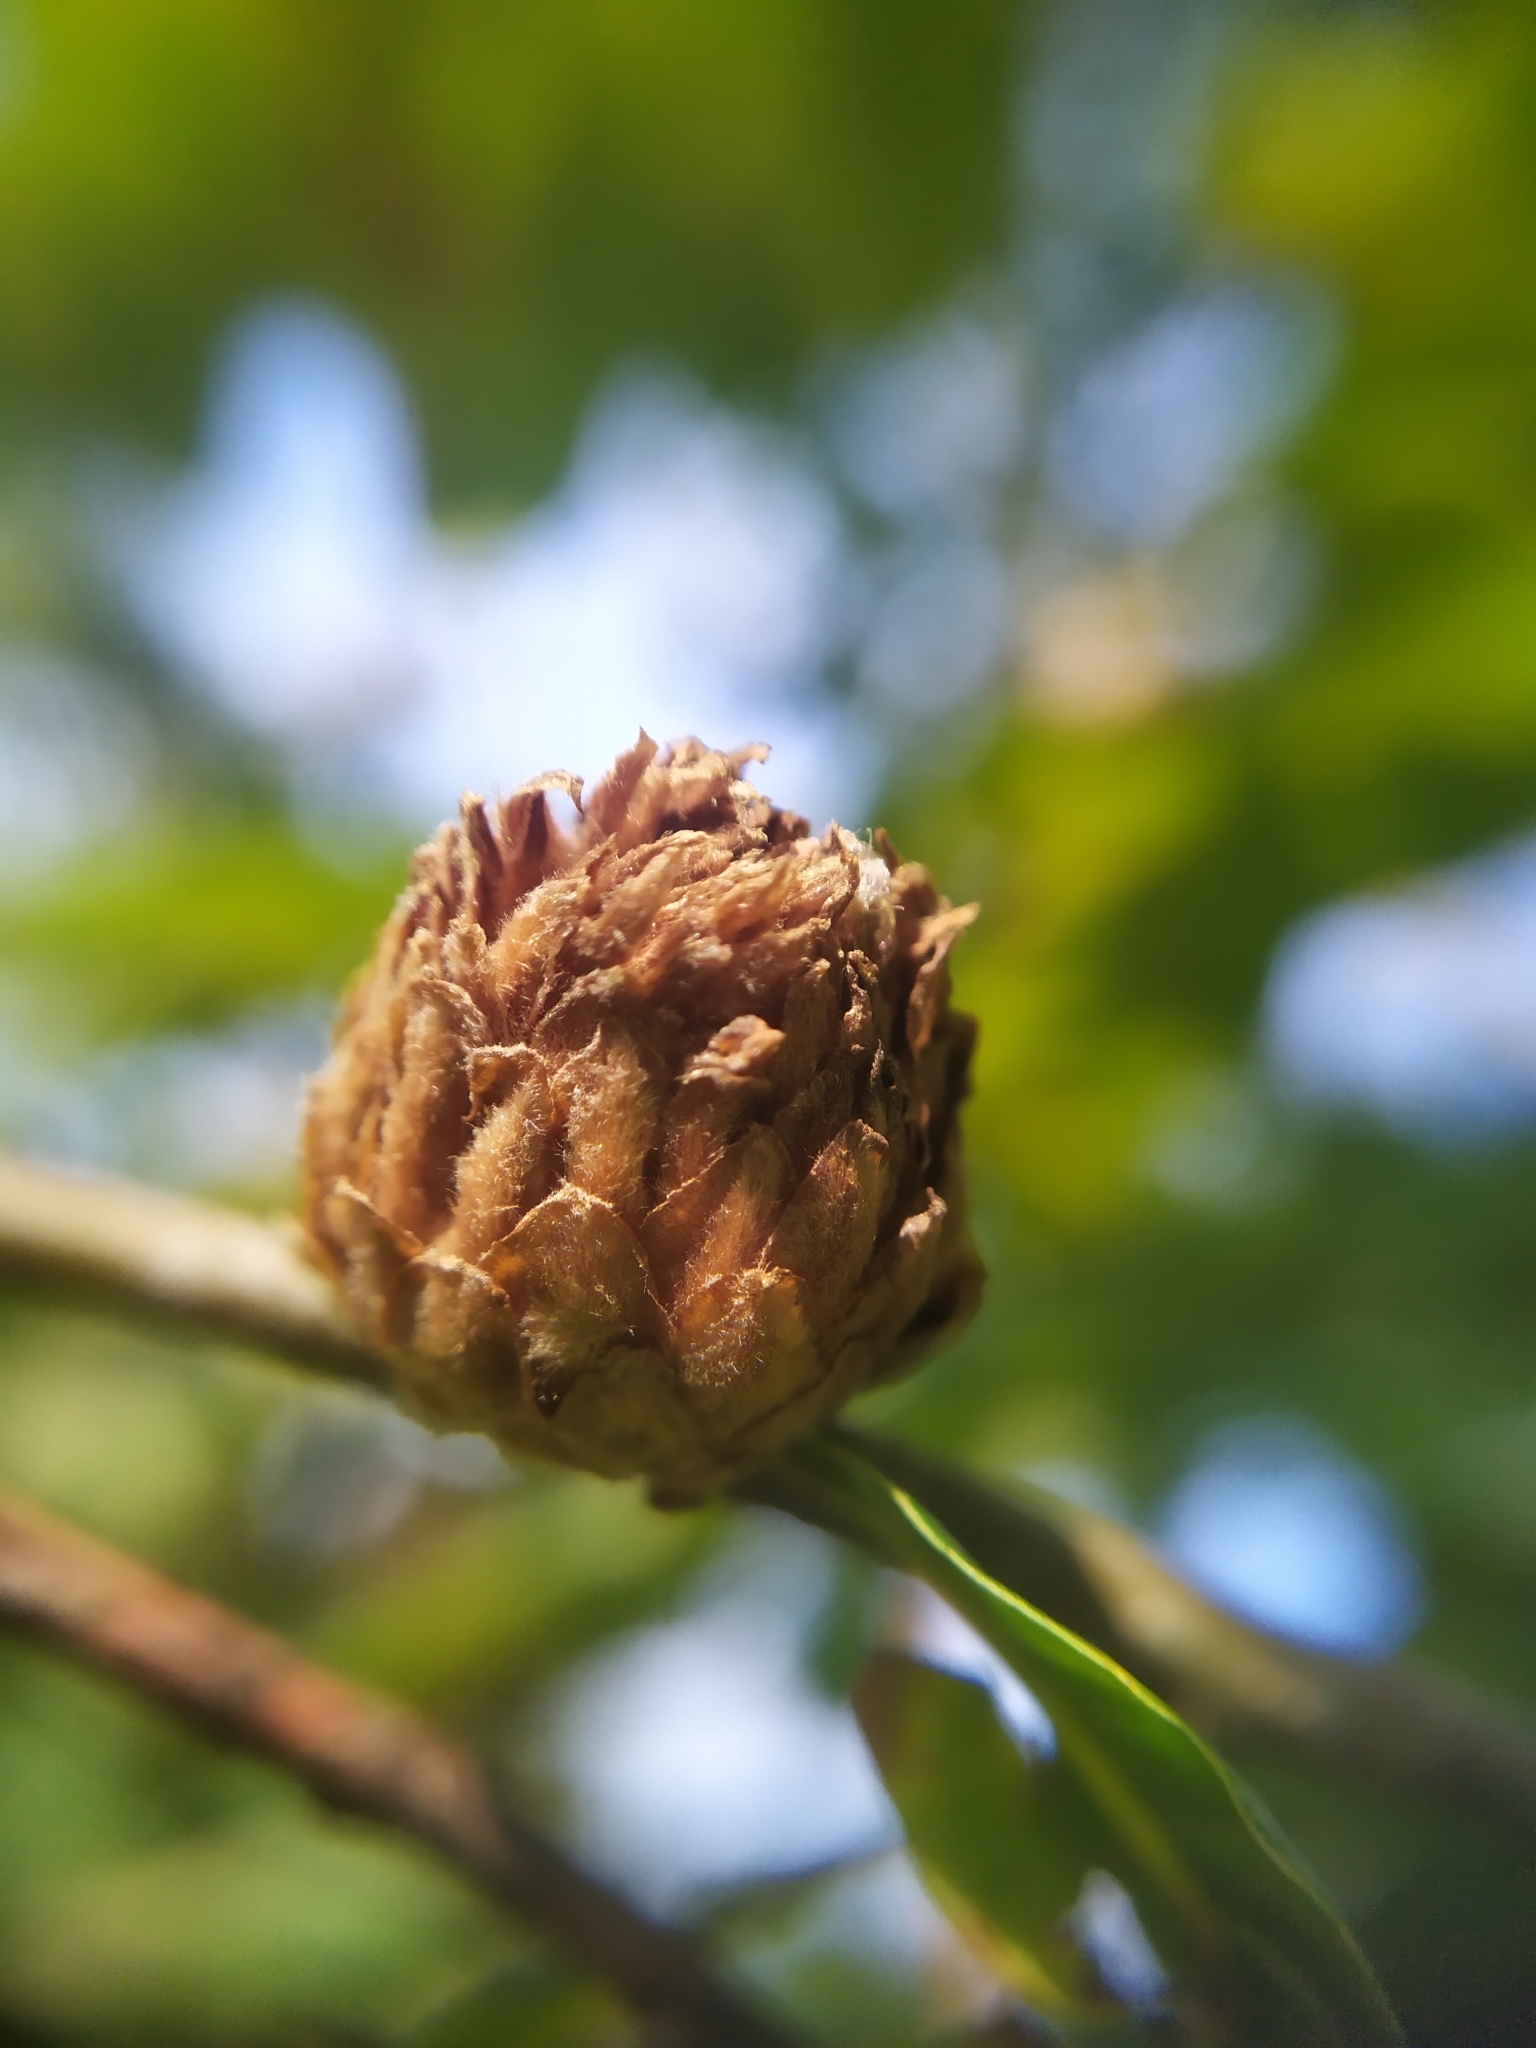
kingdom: Animalia
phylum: Arthropoda
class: Insecta
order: Hymenoptera
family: Cynipidae
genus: Andricus
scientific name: Andricus foecundatrix
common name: Artichoke gall
